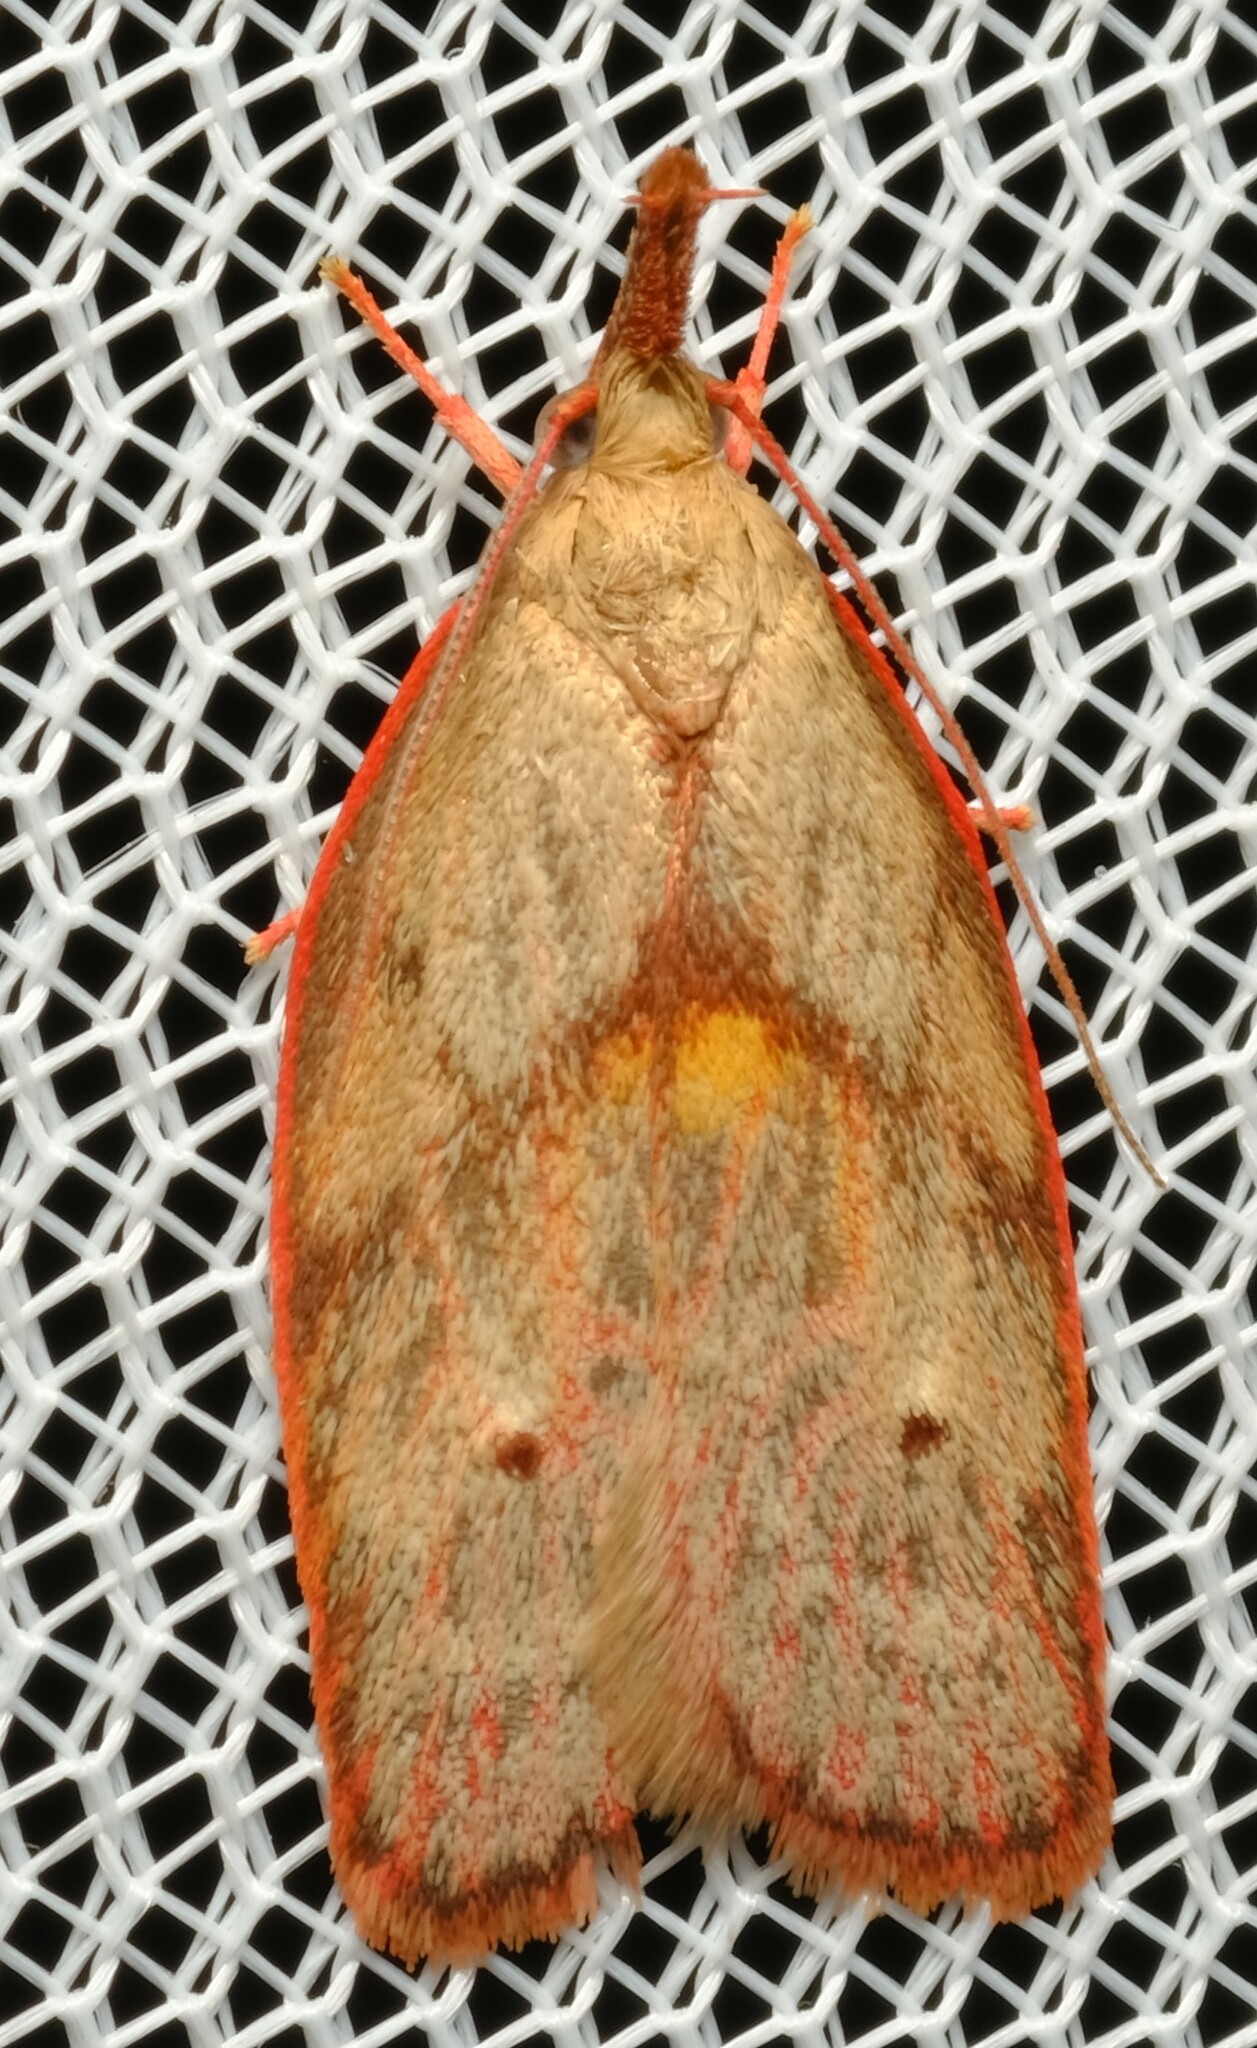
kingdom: Animalia
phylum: Arthropoda
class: Insecta
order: Lepidoptera
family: Depressariidae
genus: Enchocrates
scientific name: Enchocrates glaucopis
